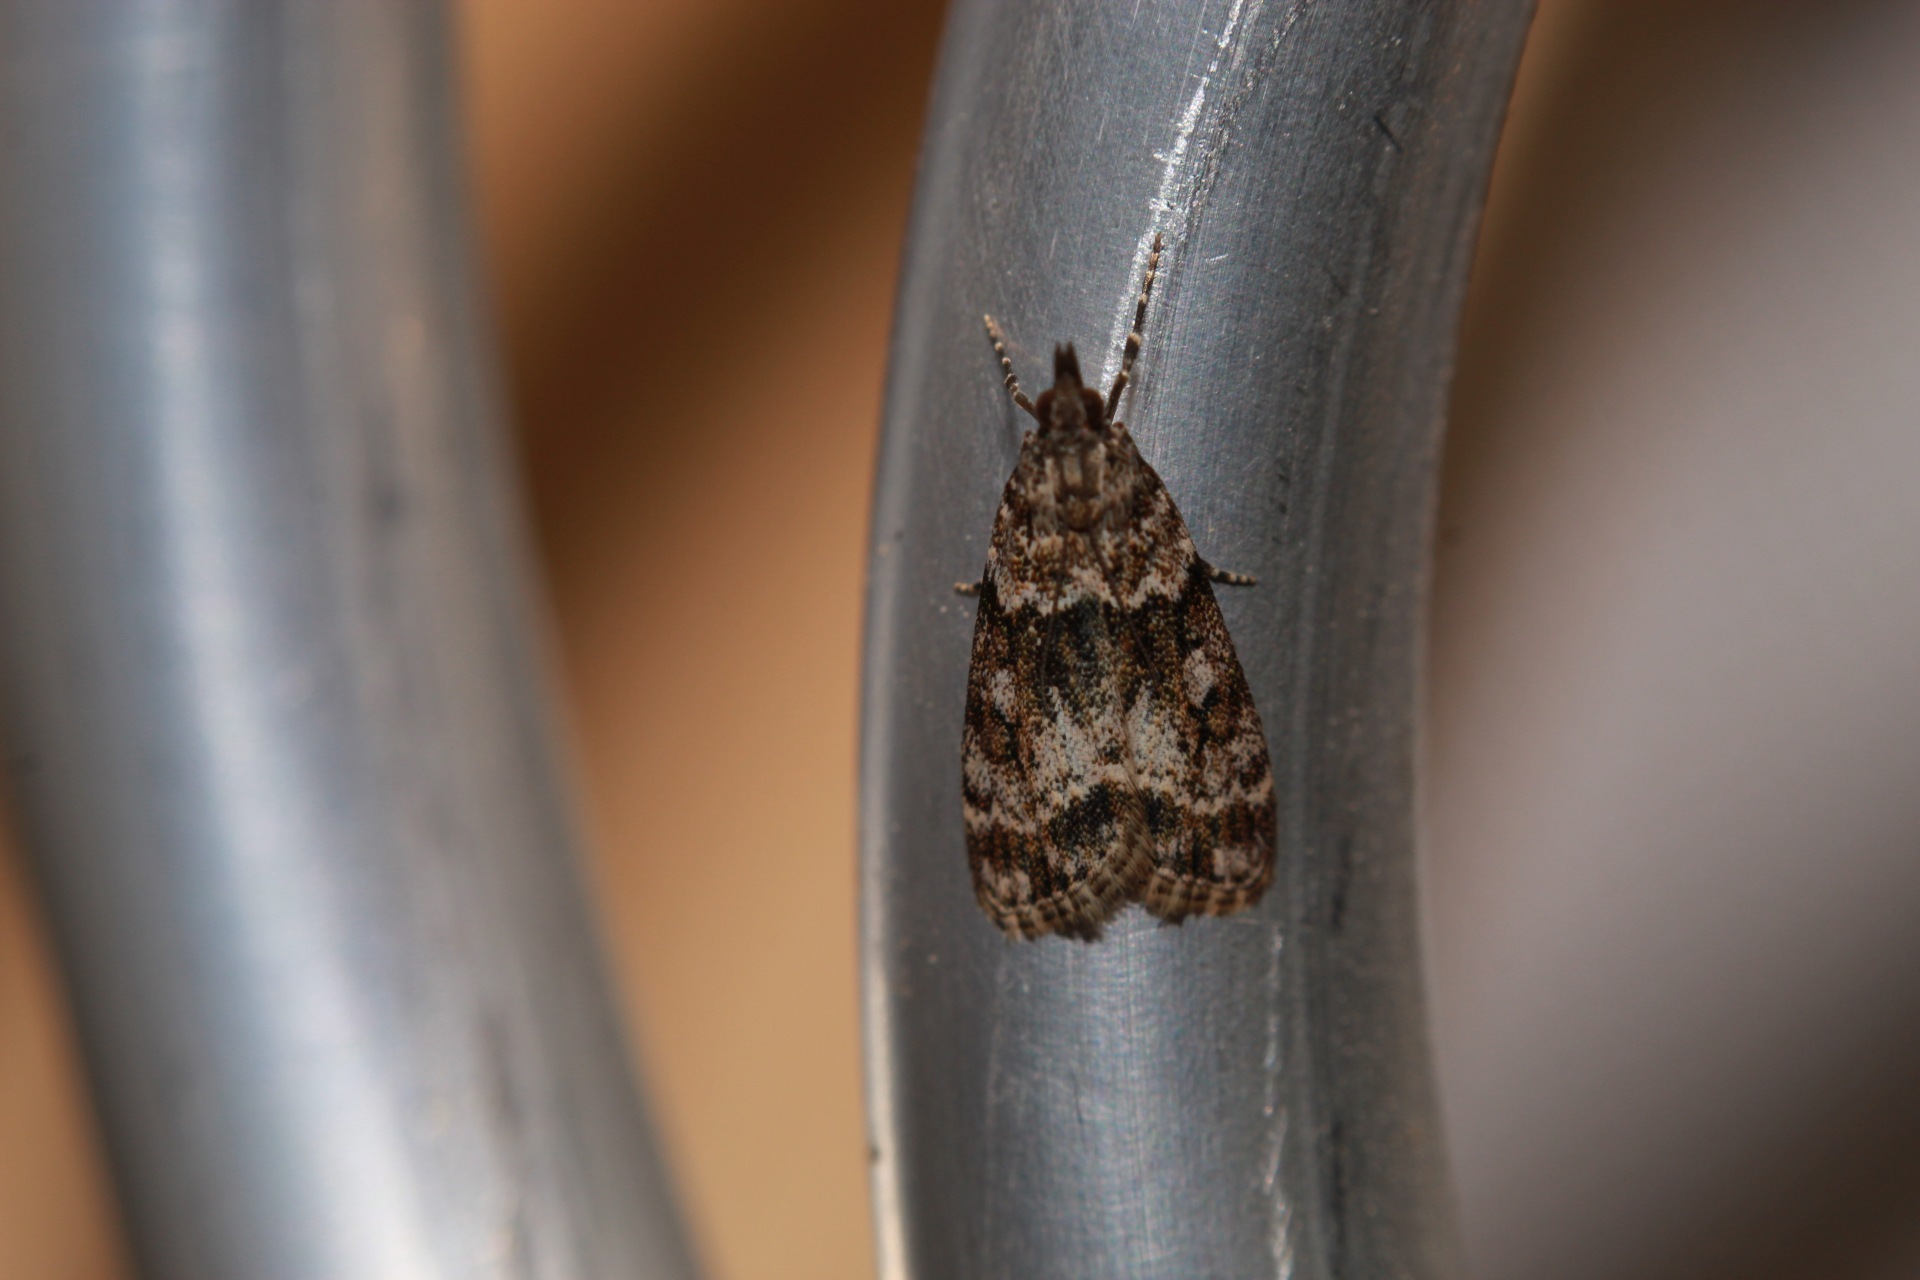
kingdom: Animalia
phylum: Arthropoda
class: Insecta
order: Lepidoptera
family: Crambidae
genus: Eudonia
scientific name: Eudonia mercurella
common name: Small grey
